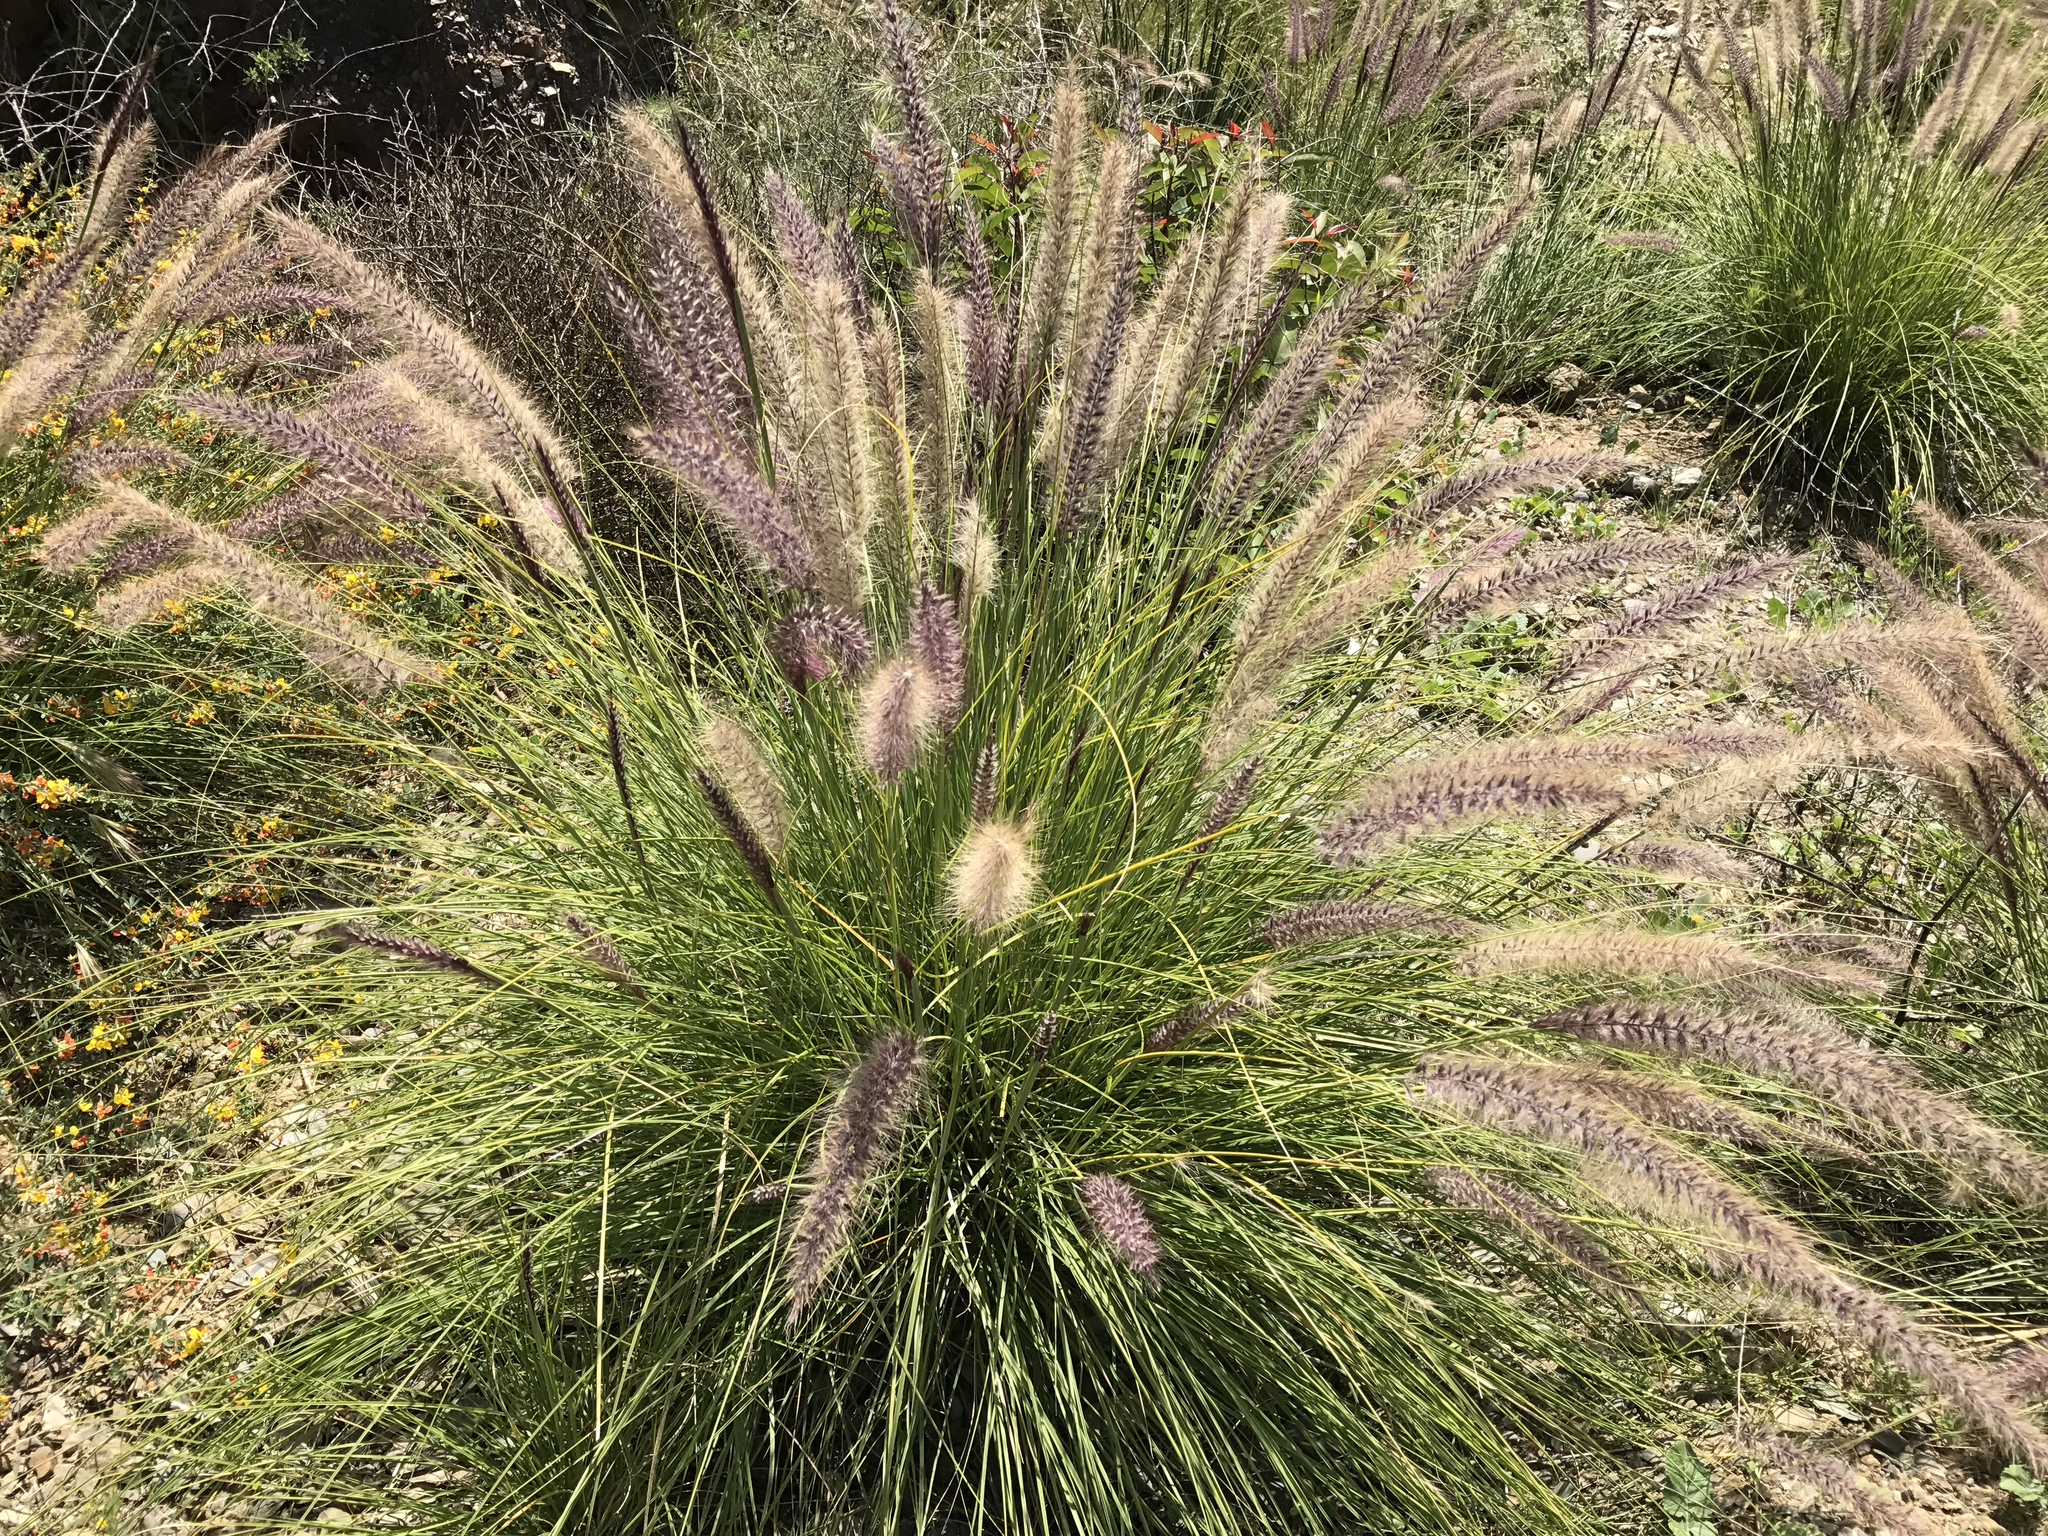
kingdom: Plantae
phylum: Tracheophyta
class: Liliopsida
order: Poales
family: Poaceae
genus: Cenchrus
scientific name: Cenchrus setaceus
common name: Crimson fountaingrass
